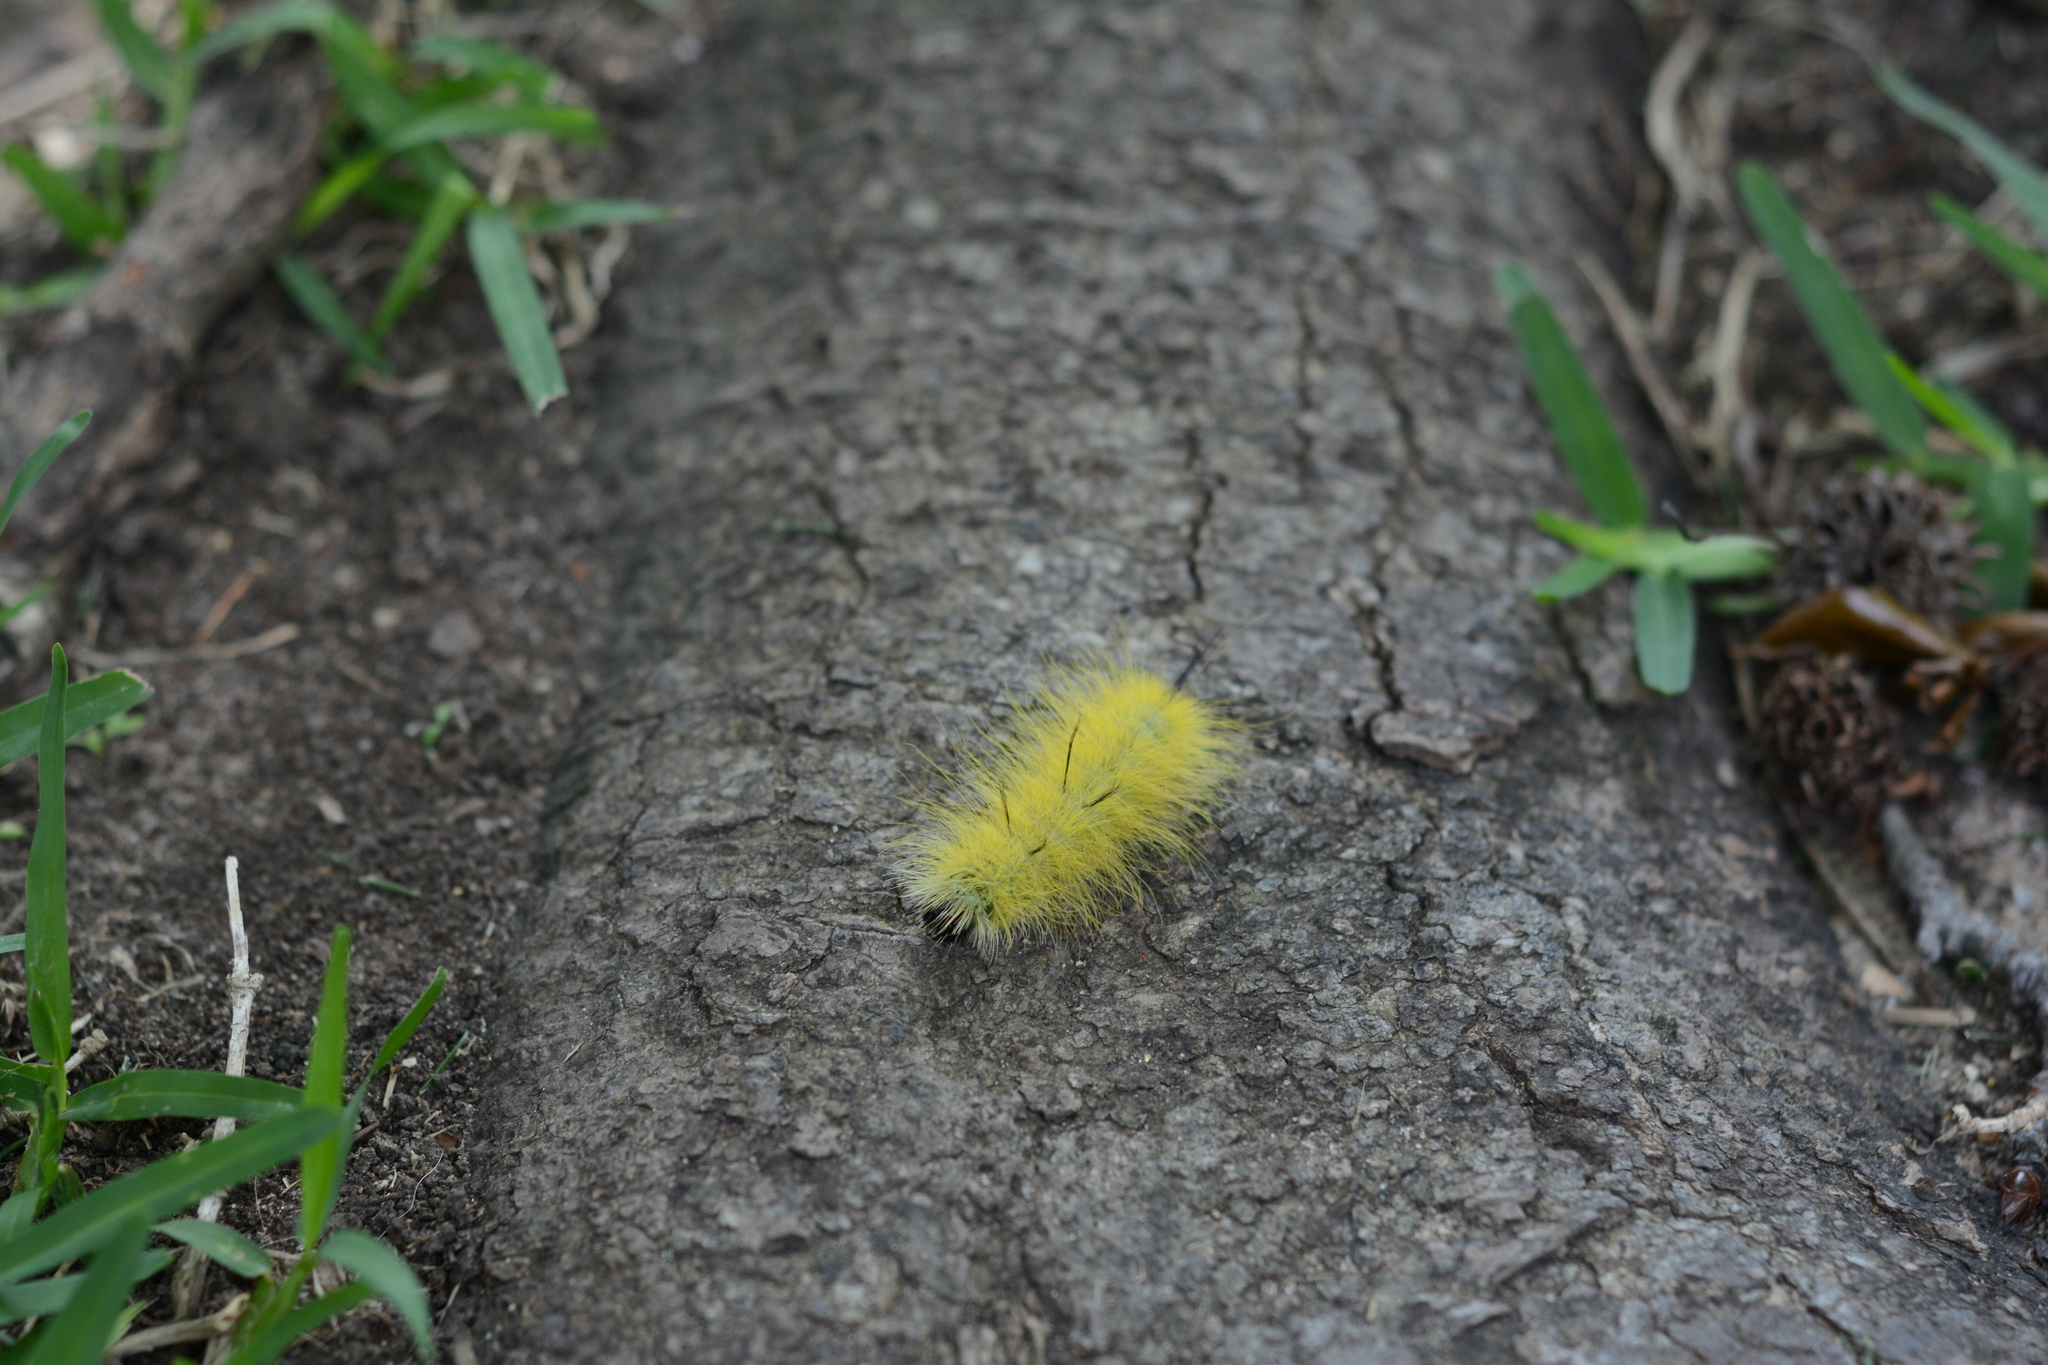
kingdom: Animalia
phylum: Arthropoda
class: Insecta
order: Lepidoptera
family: Noctuidae
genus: Acronicta
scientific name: Acronicta americana
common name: American dagger
